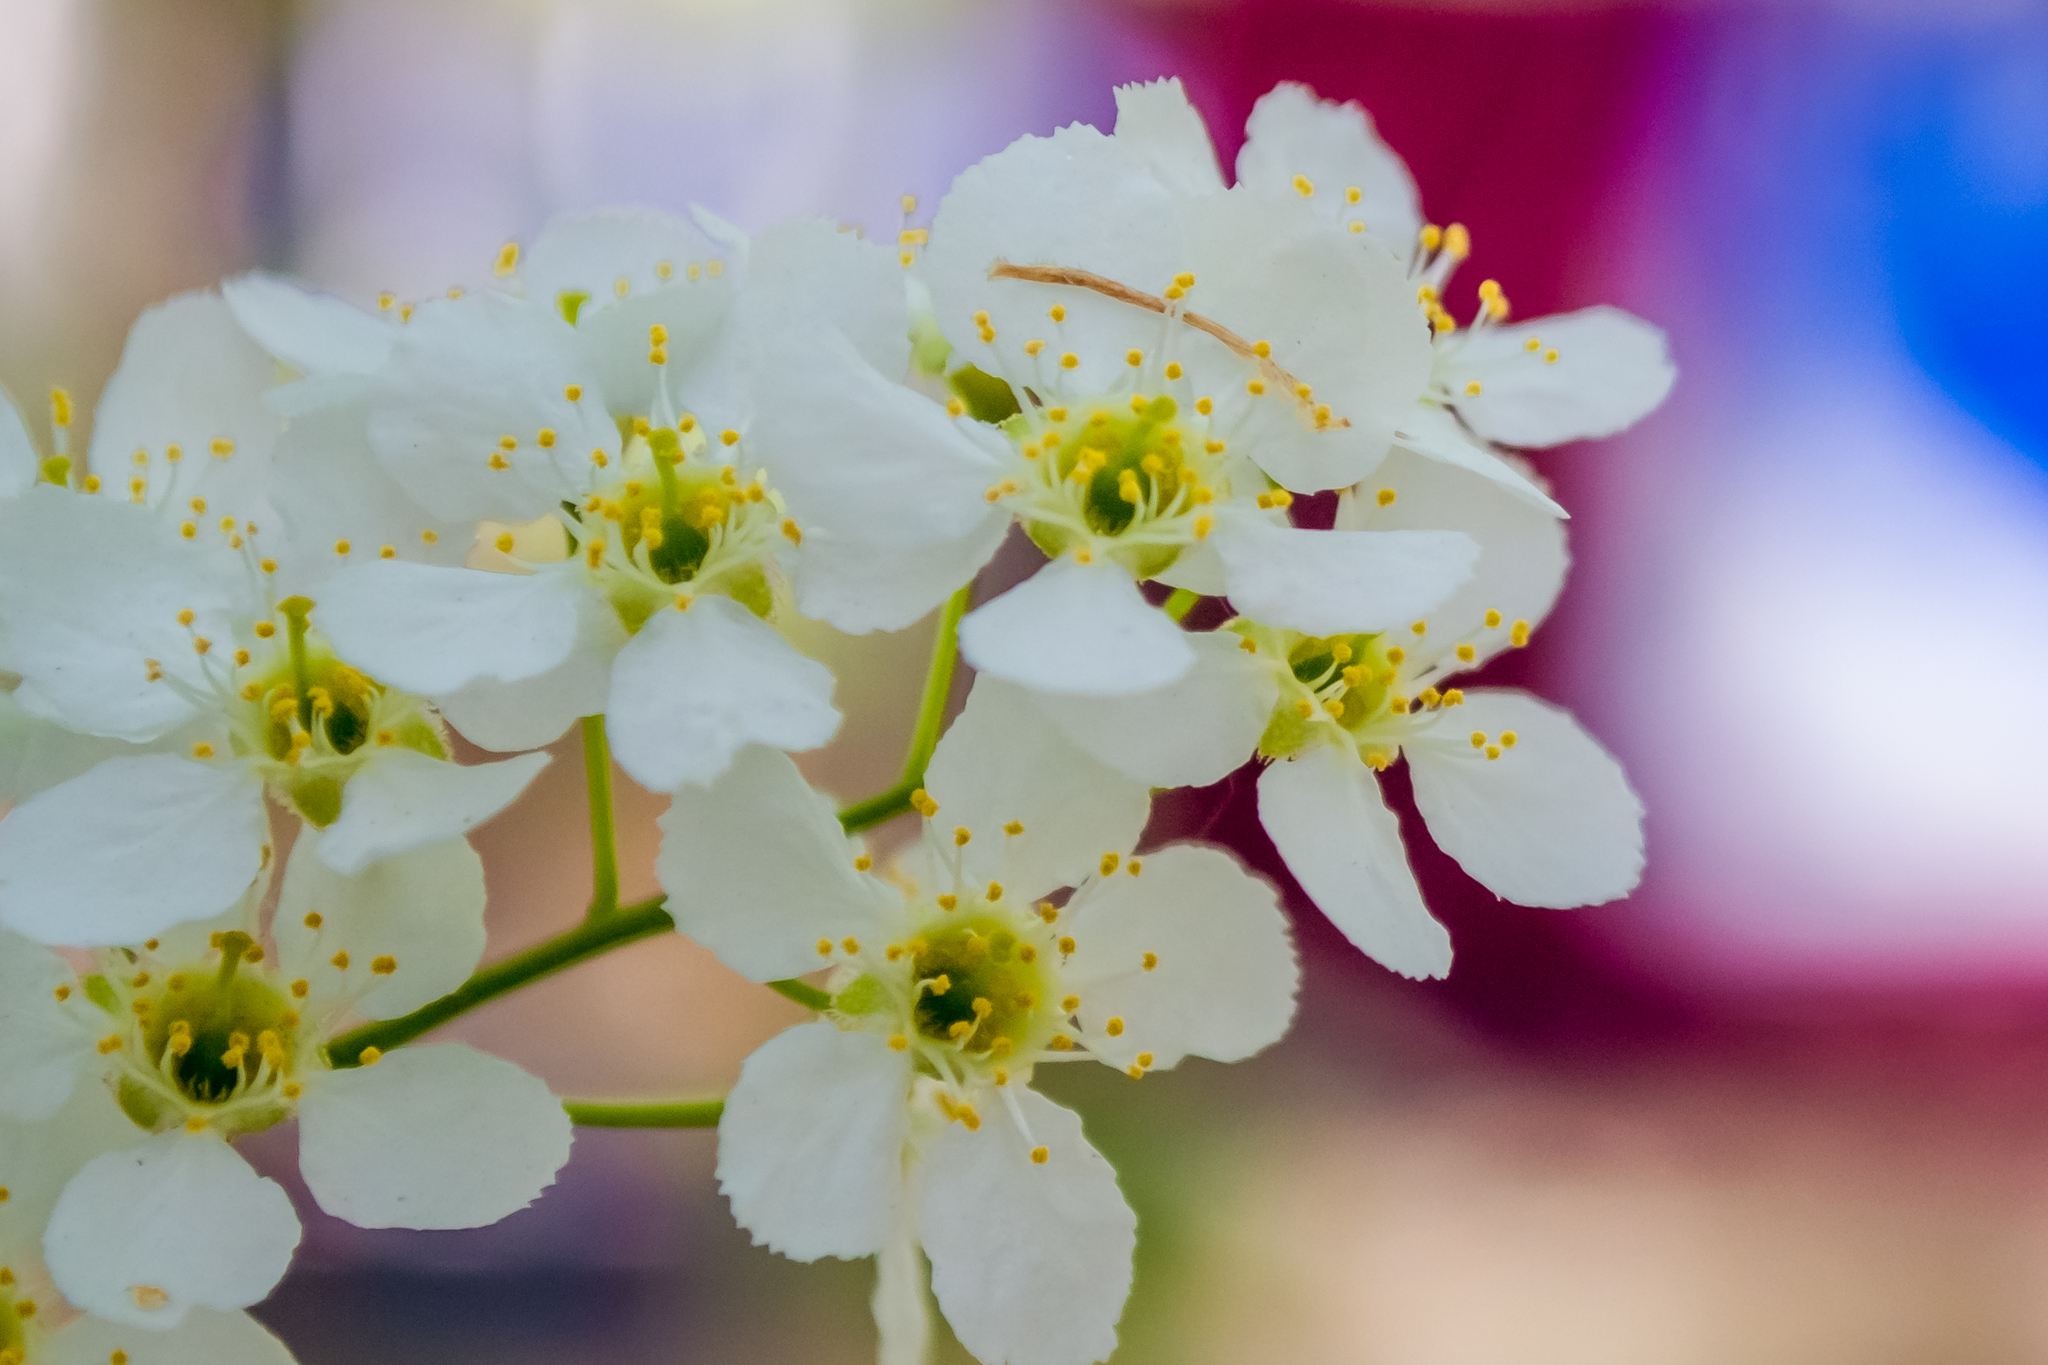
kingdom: Plantae
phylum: Tracheophyta
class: Magnoliopsida
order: Rosales
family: Rosaceae
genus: Prunus
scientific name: Prunus padus
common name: Bird cherry
